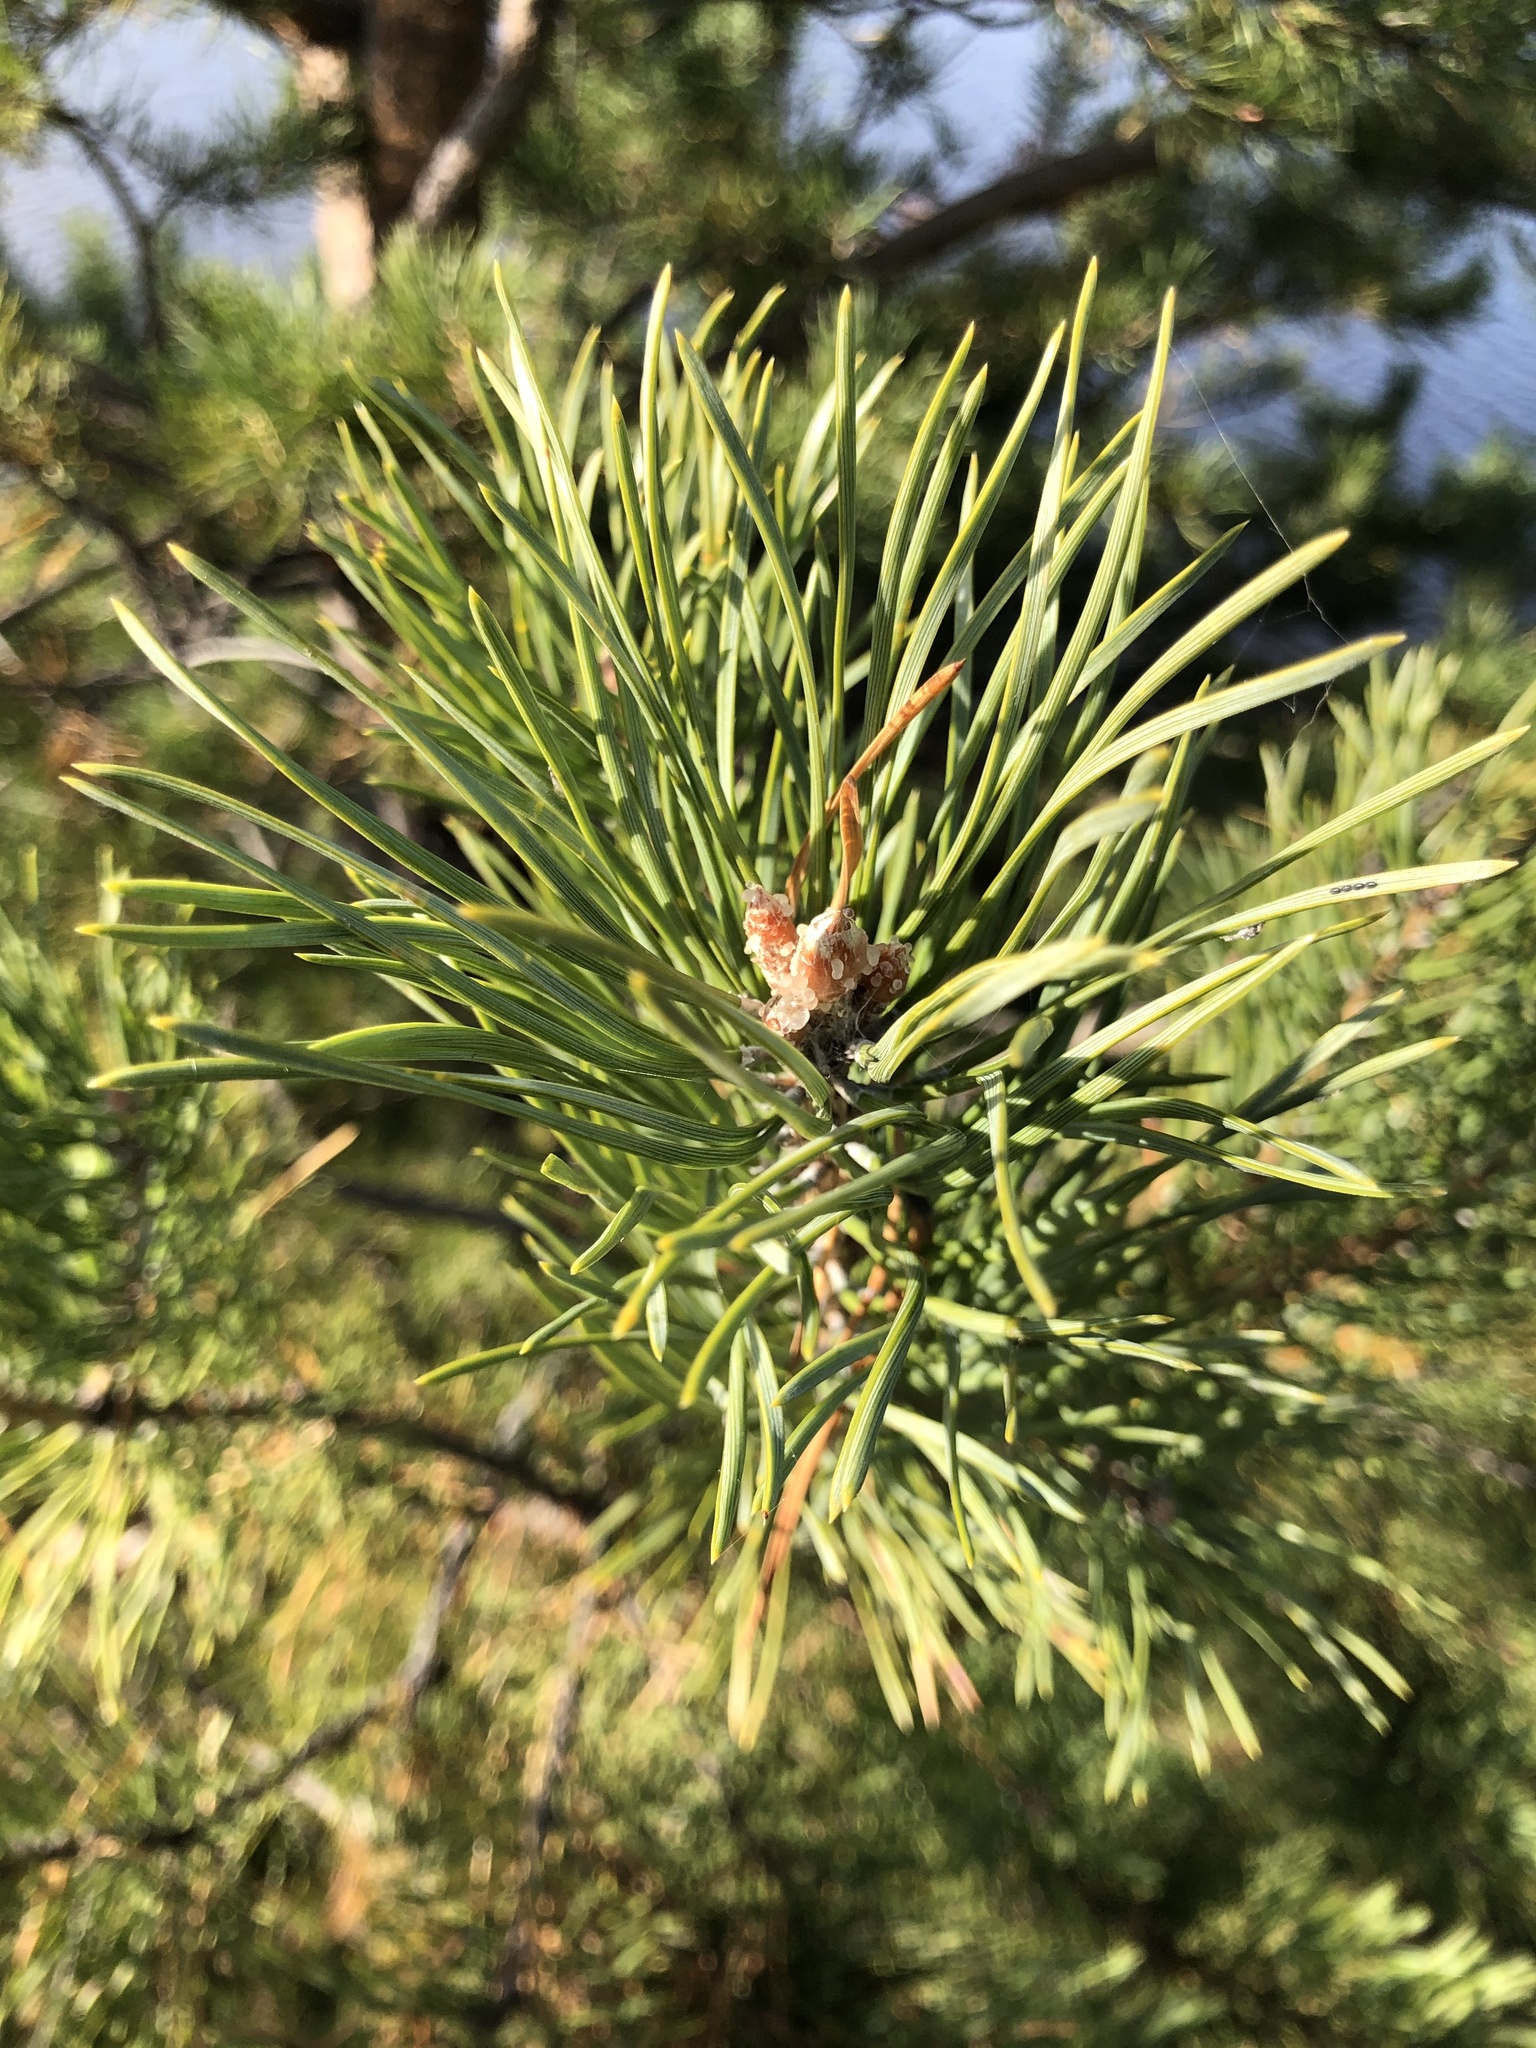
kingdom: Plantae
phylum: Tracheophyta
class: Pinopsida
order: Pinales
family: Pinaceae
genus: Pinus
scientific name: Pinus sylvestris
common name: Scots pine
